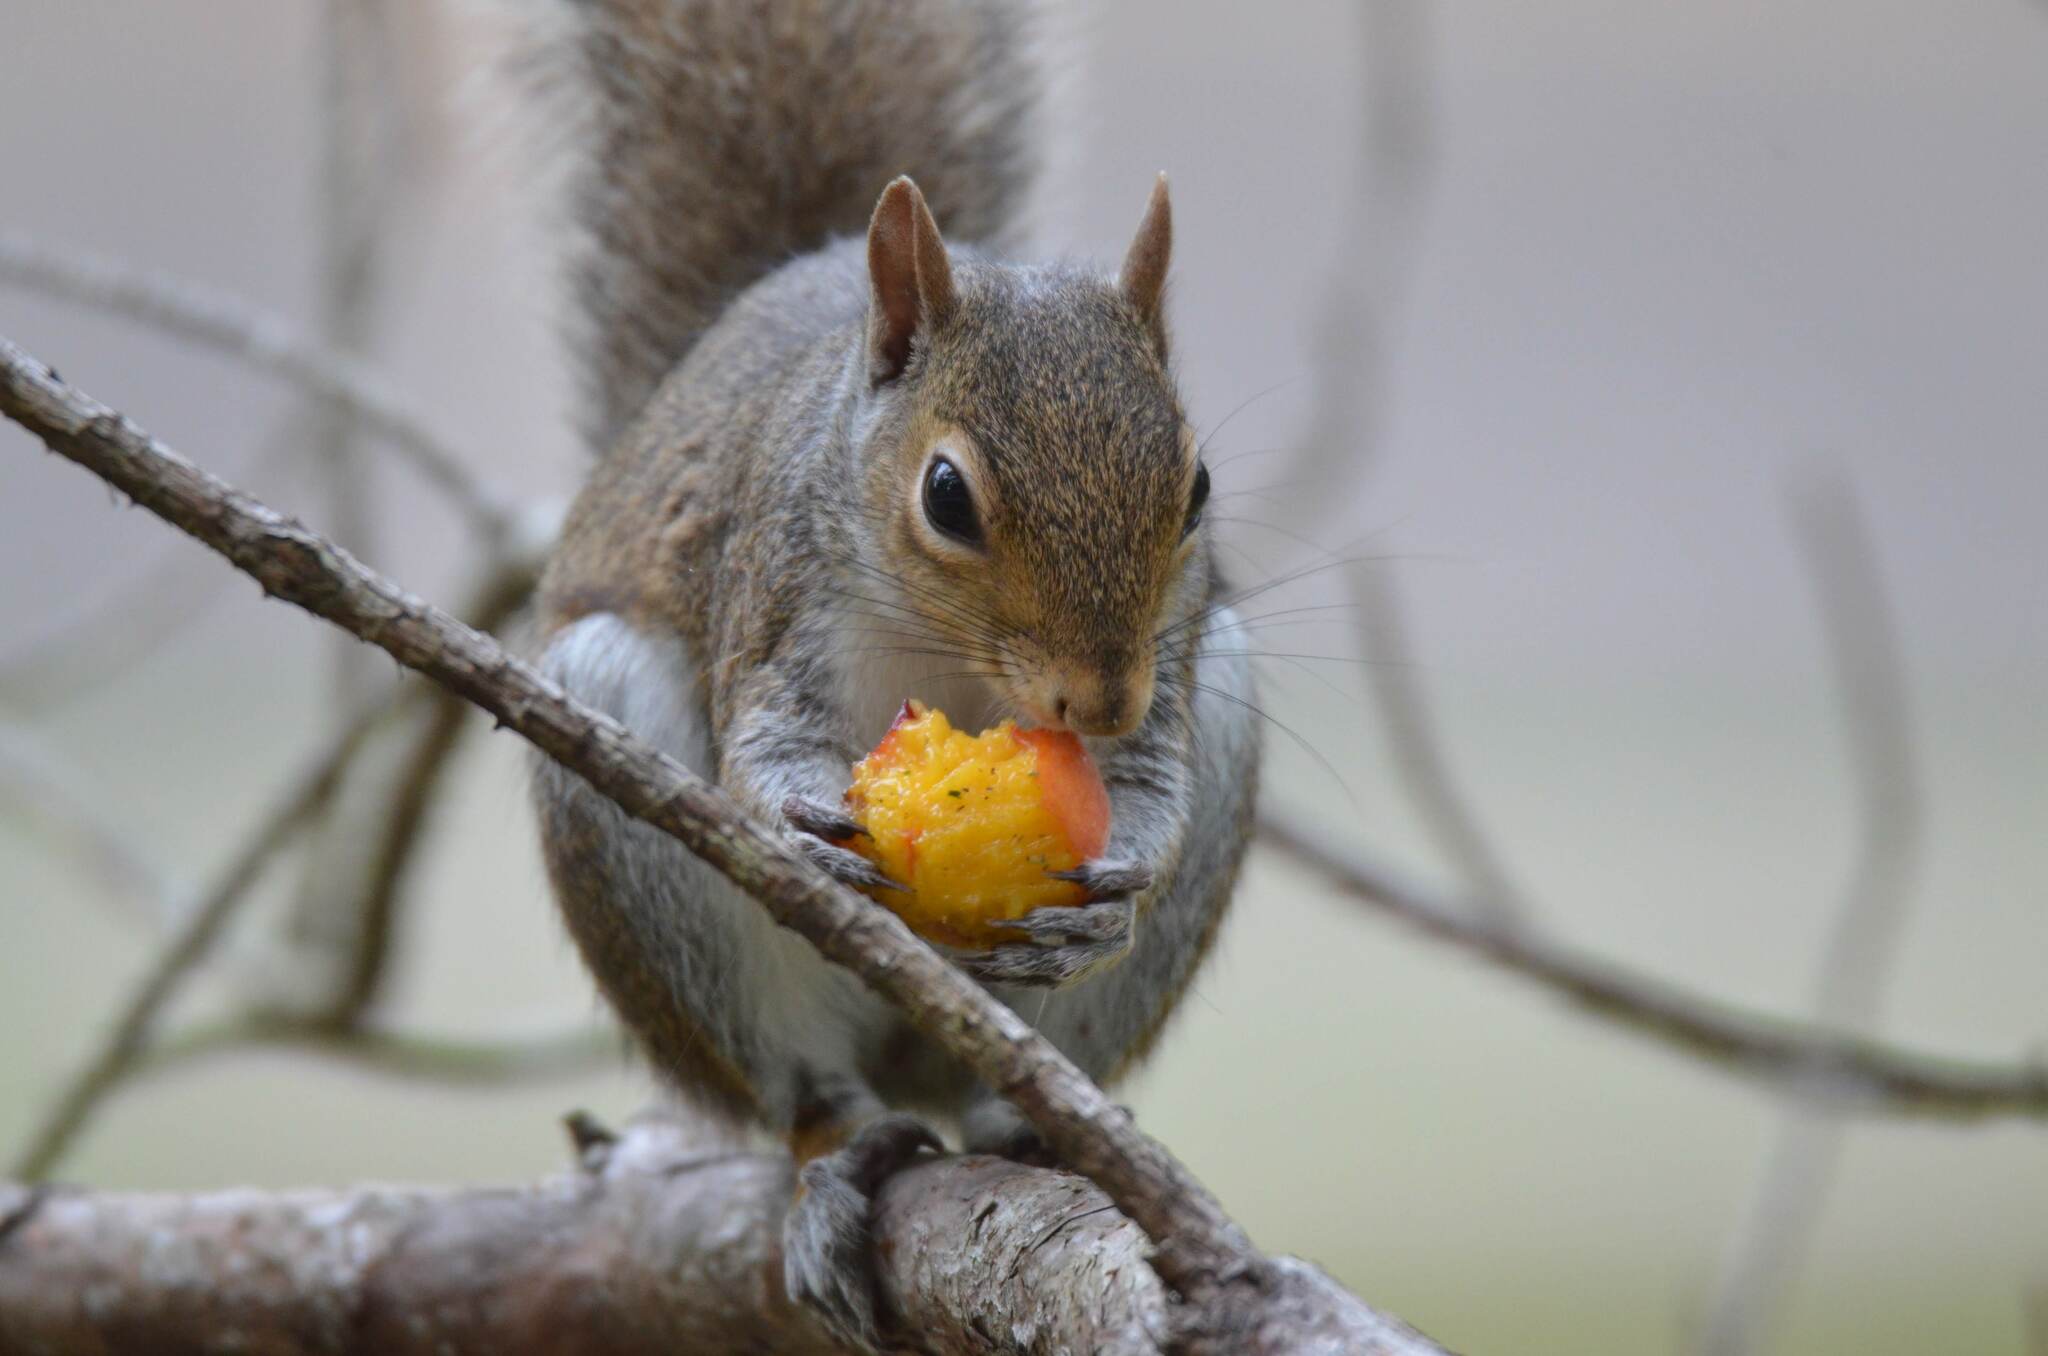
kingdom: Animalia
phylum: Chordata
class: Mammalia
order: Rodentia
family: Sciuridae
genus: Sciurus
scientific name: Sciurus carolinensis
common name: Eastern gray squirrel
